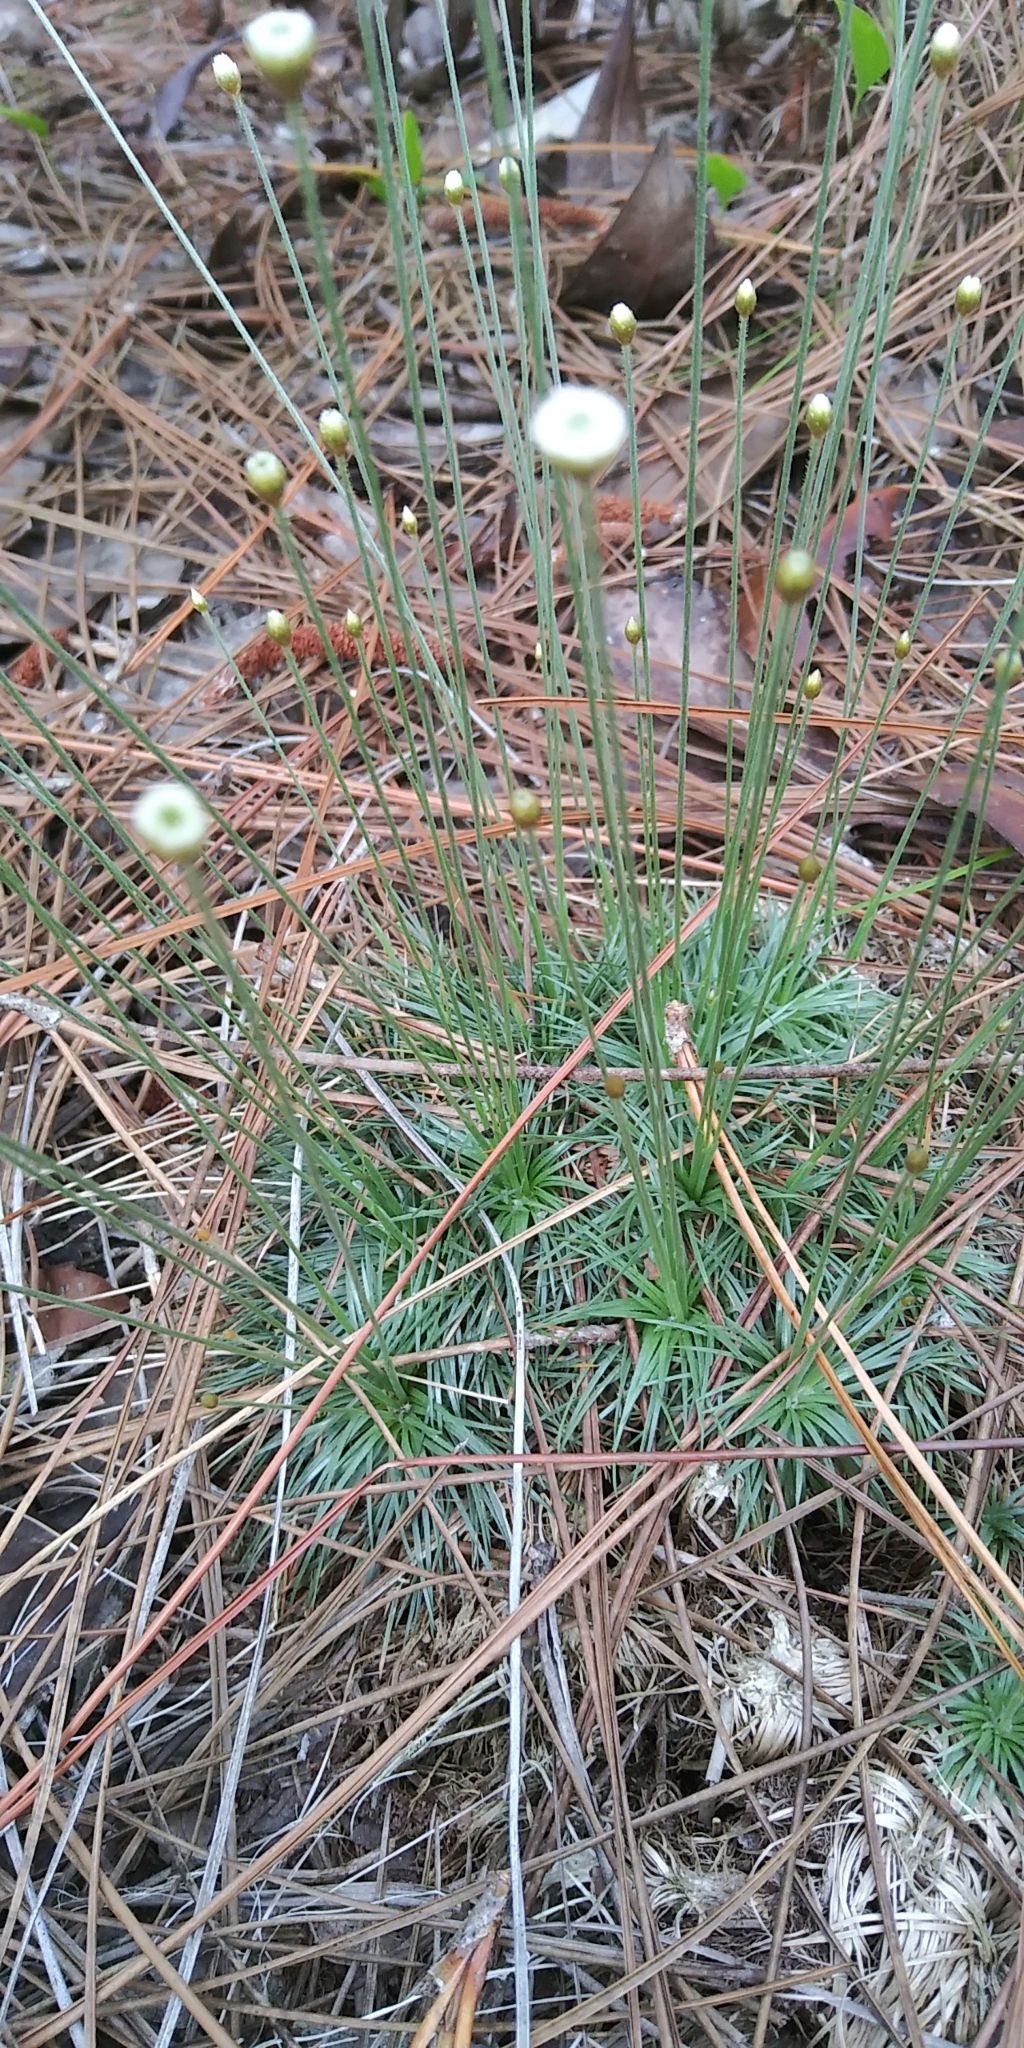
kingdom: Plantae
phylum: Tracheophyta
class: Liliopsida
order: Poales
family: Eriocaulaceae
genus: Syngonanthus
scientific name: Syngonanthus flavidulus
